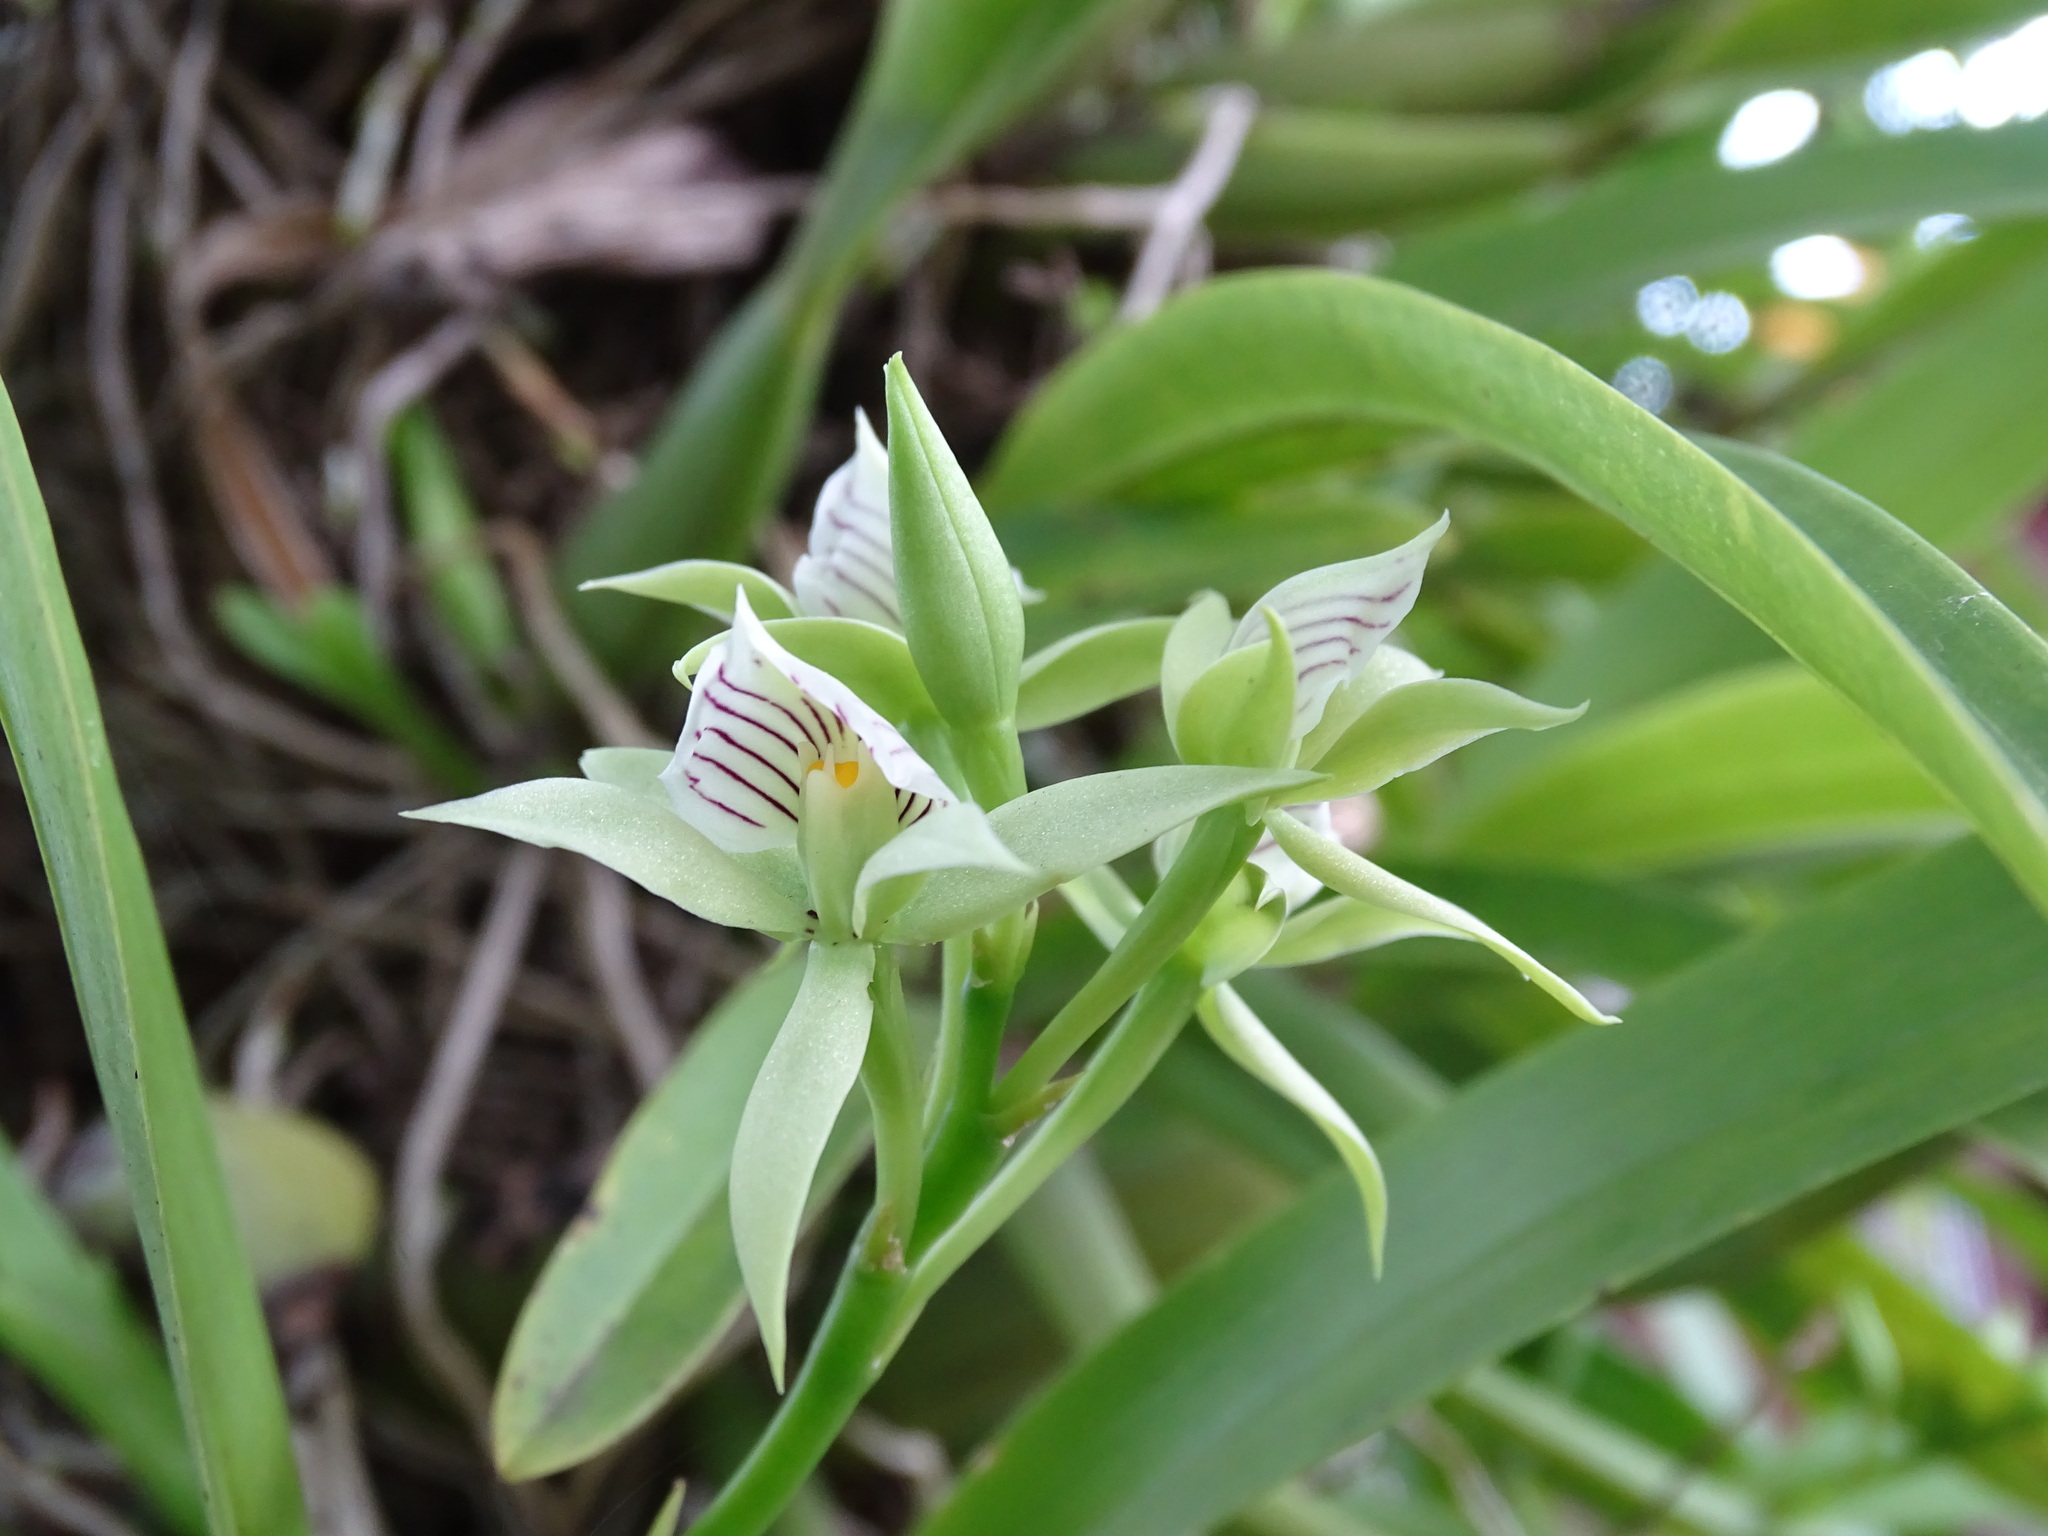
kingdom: Plantae
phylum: Tracheophyta
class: Liliopsida
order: Asparagales
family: Orchidaceae
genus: Prosthechea
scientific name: Prosthechea chacaoensis
